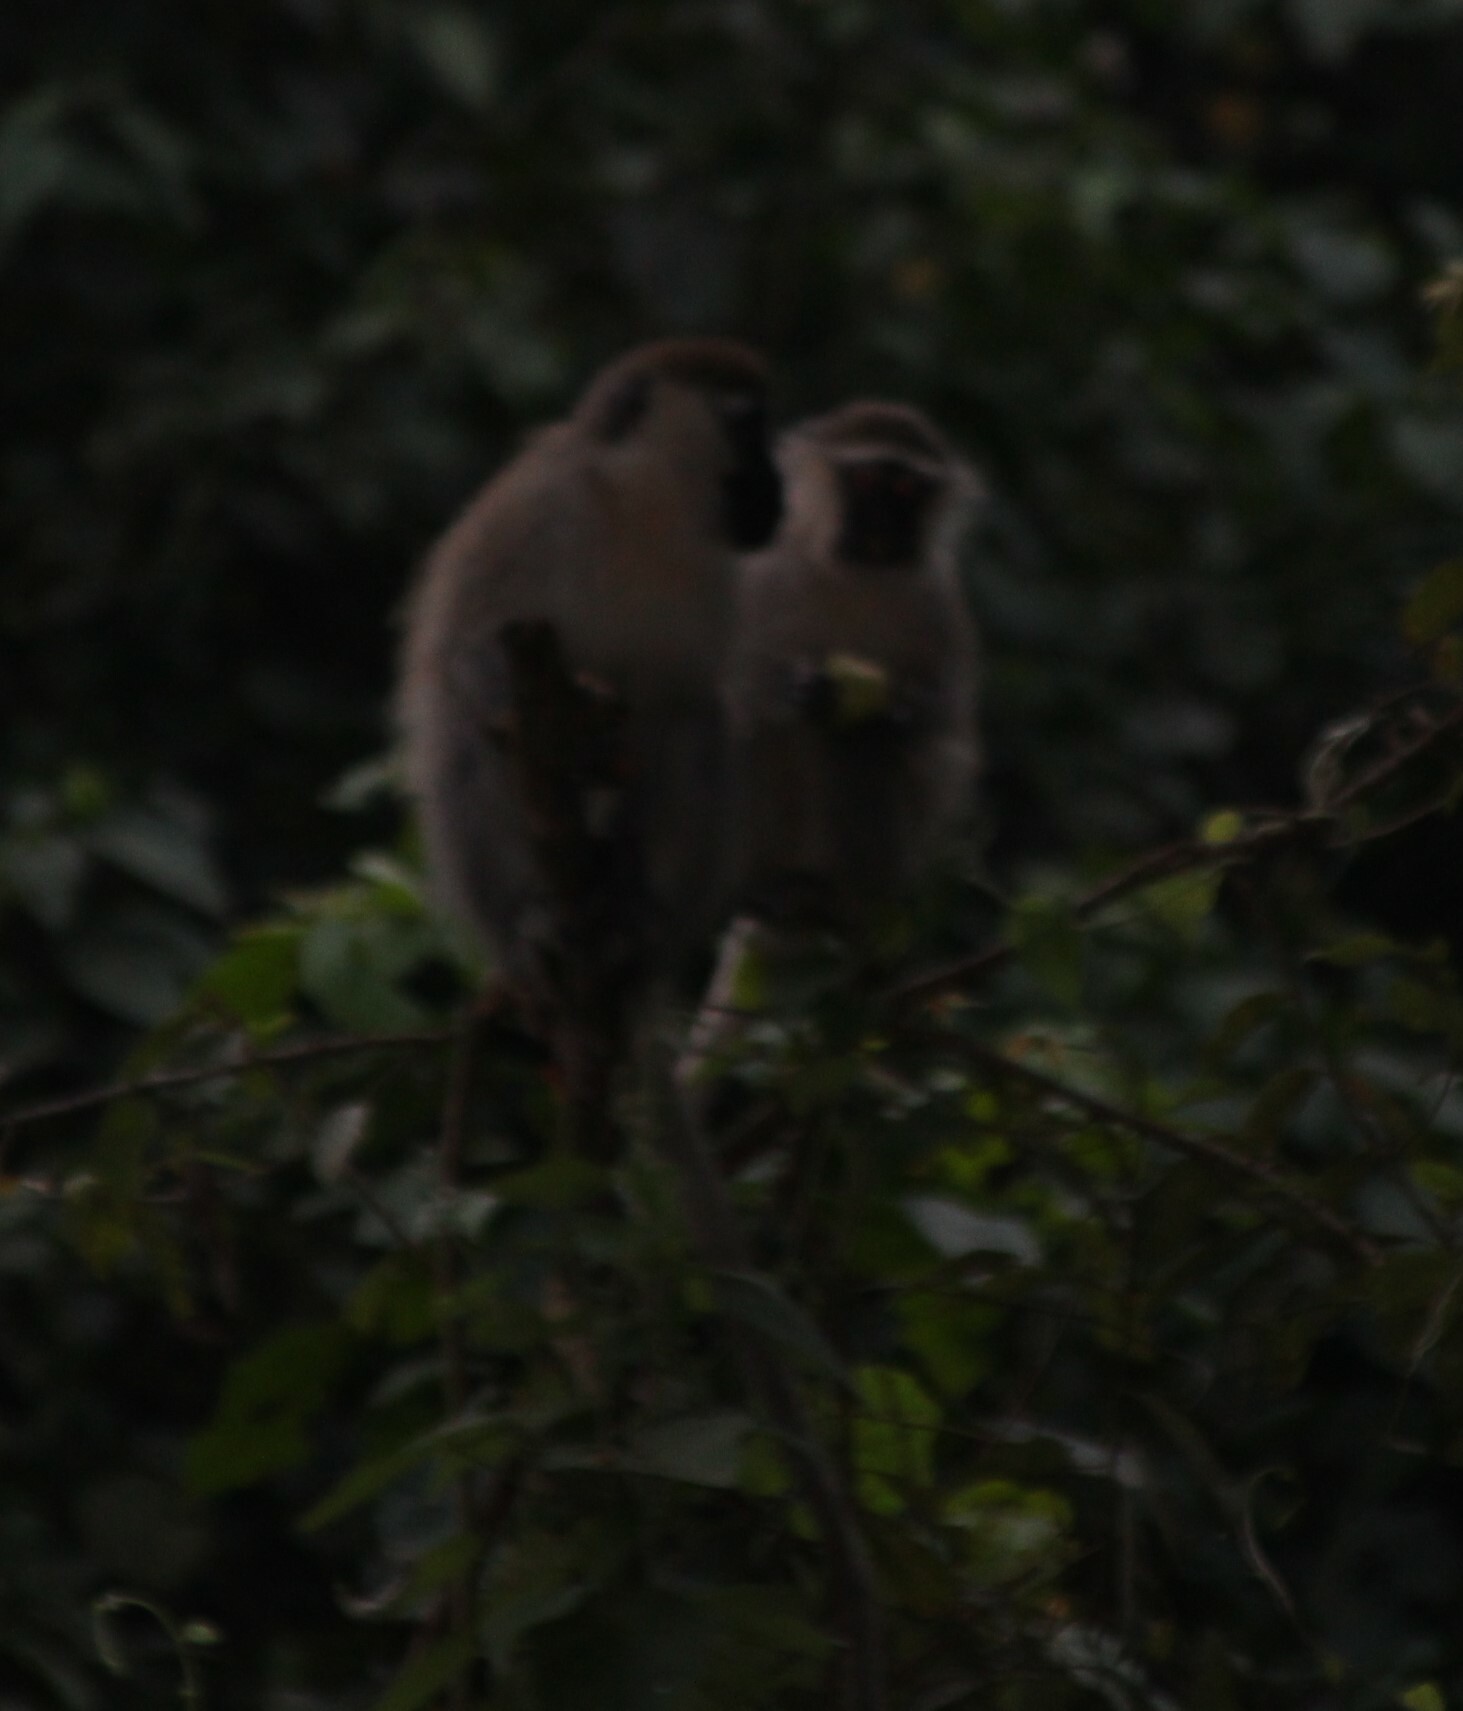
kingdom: Animalia
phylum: Chordata
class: Mammalia
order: Primates
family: Cercopithecidae
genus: Chlorocebus
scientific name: Chlorocebus tantalus
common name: Tantalus monkey
